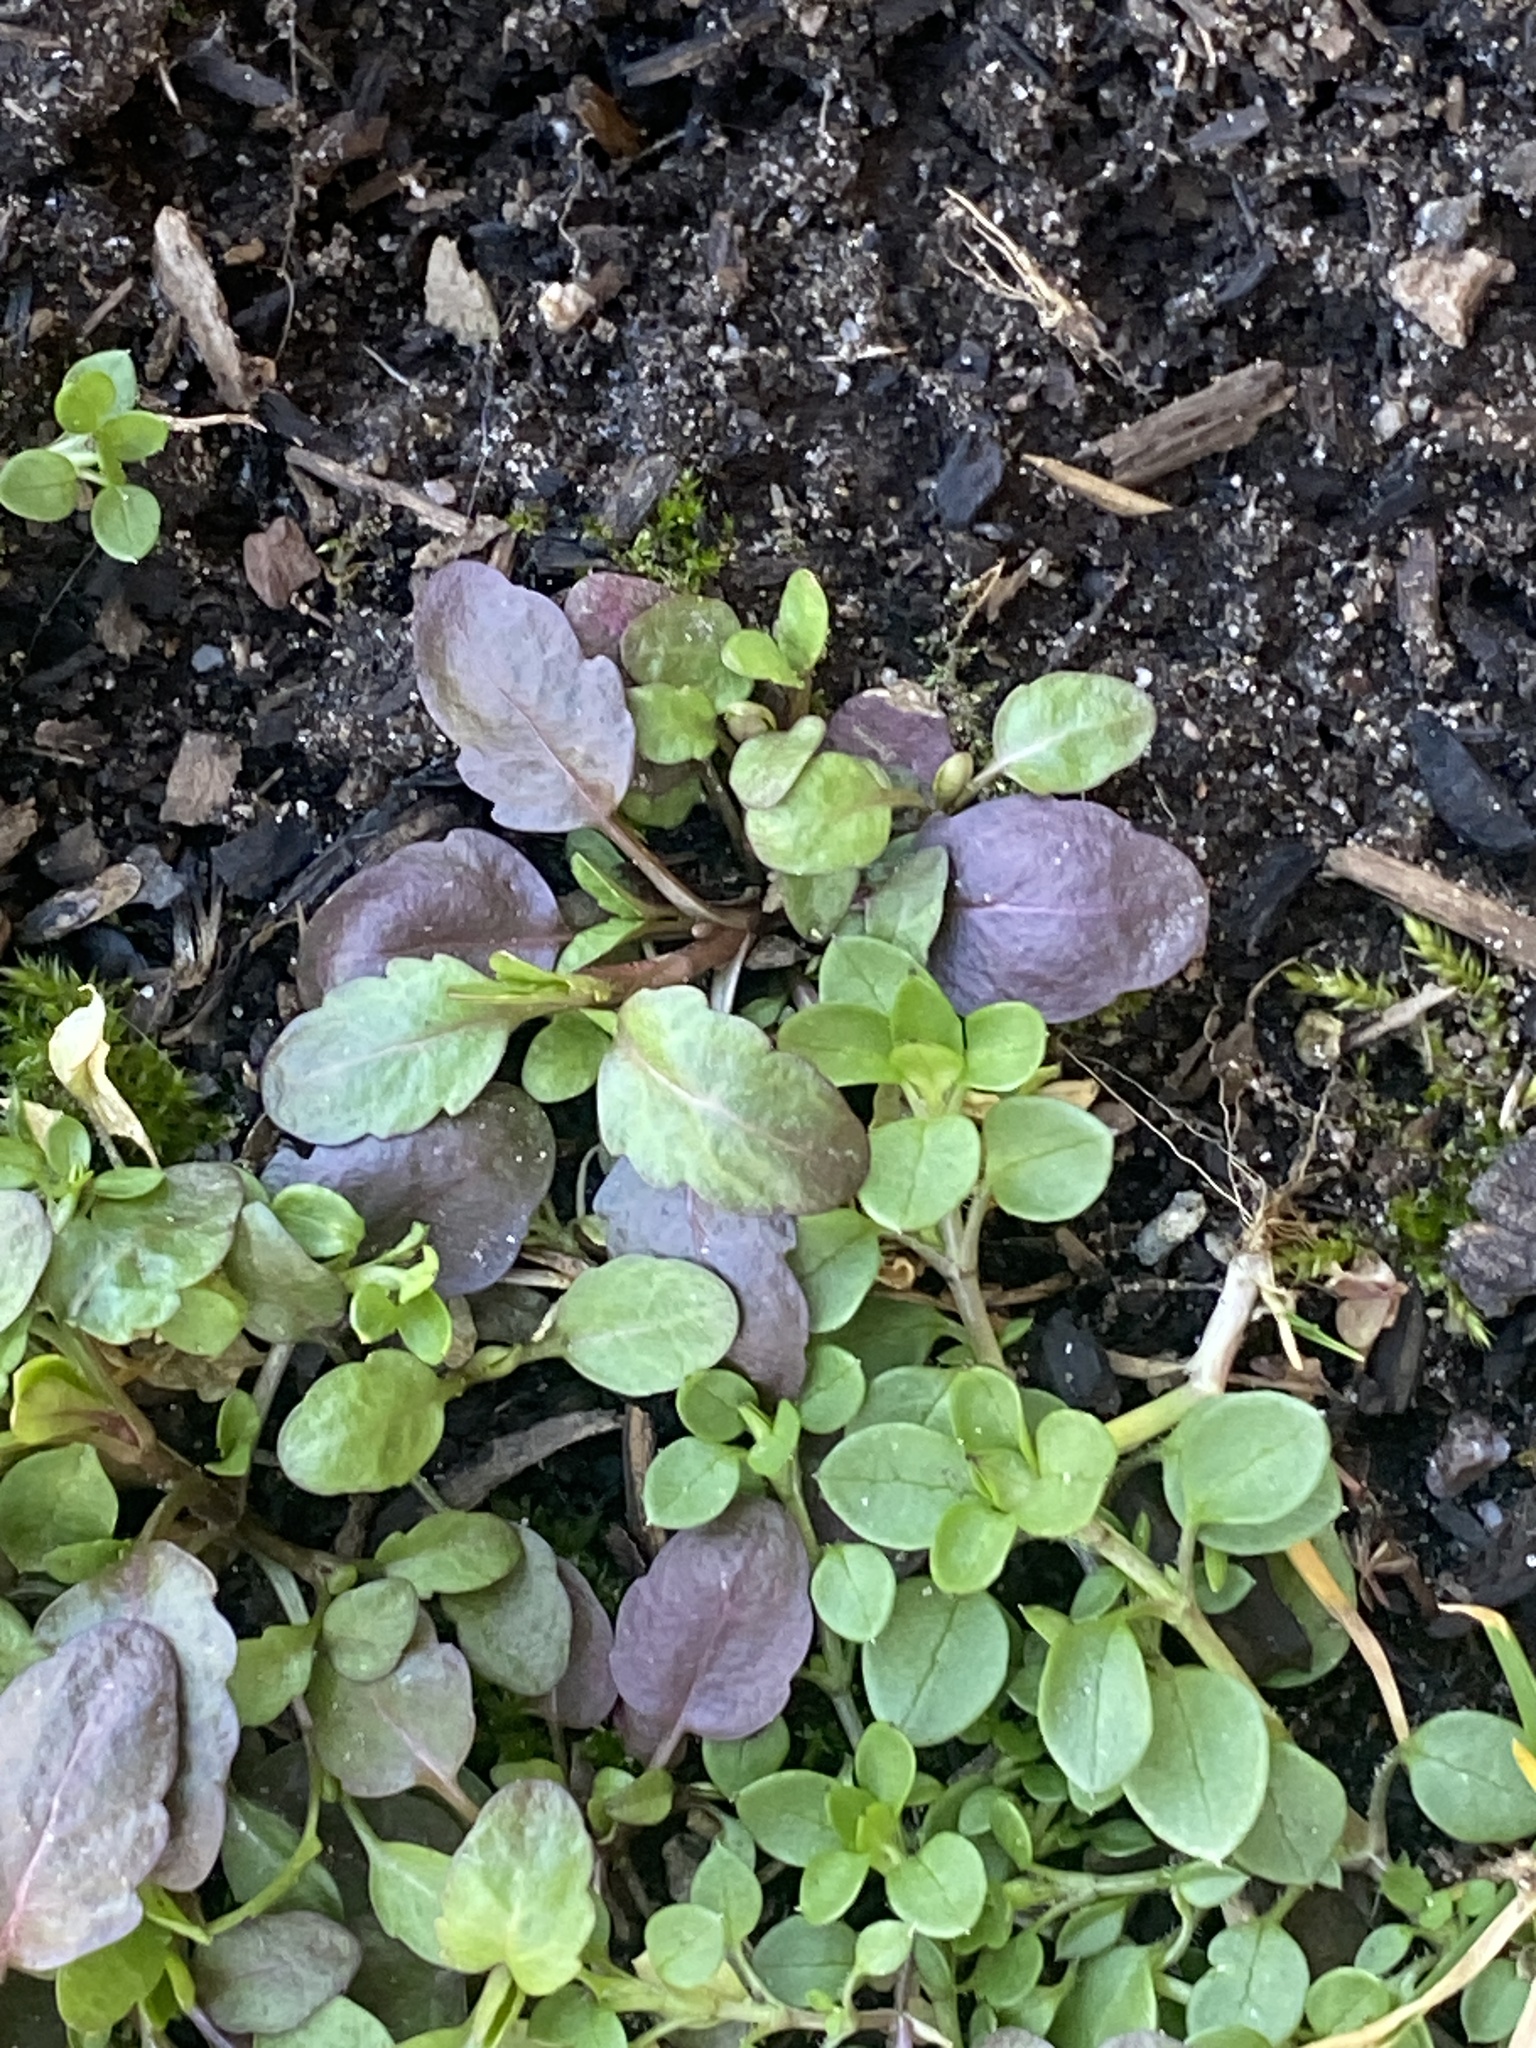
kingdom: Plantae
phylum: Tracheophyta
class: Magnoliopsida
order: Lamiales
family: Plantaginaceae
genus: Veronica
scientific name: Veronica peregrina
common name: Neckweed
